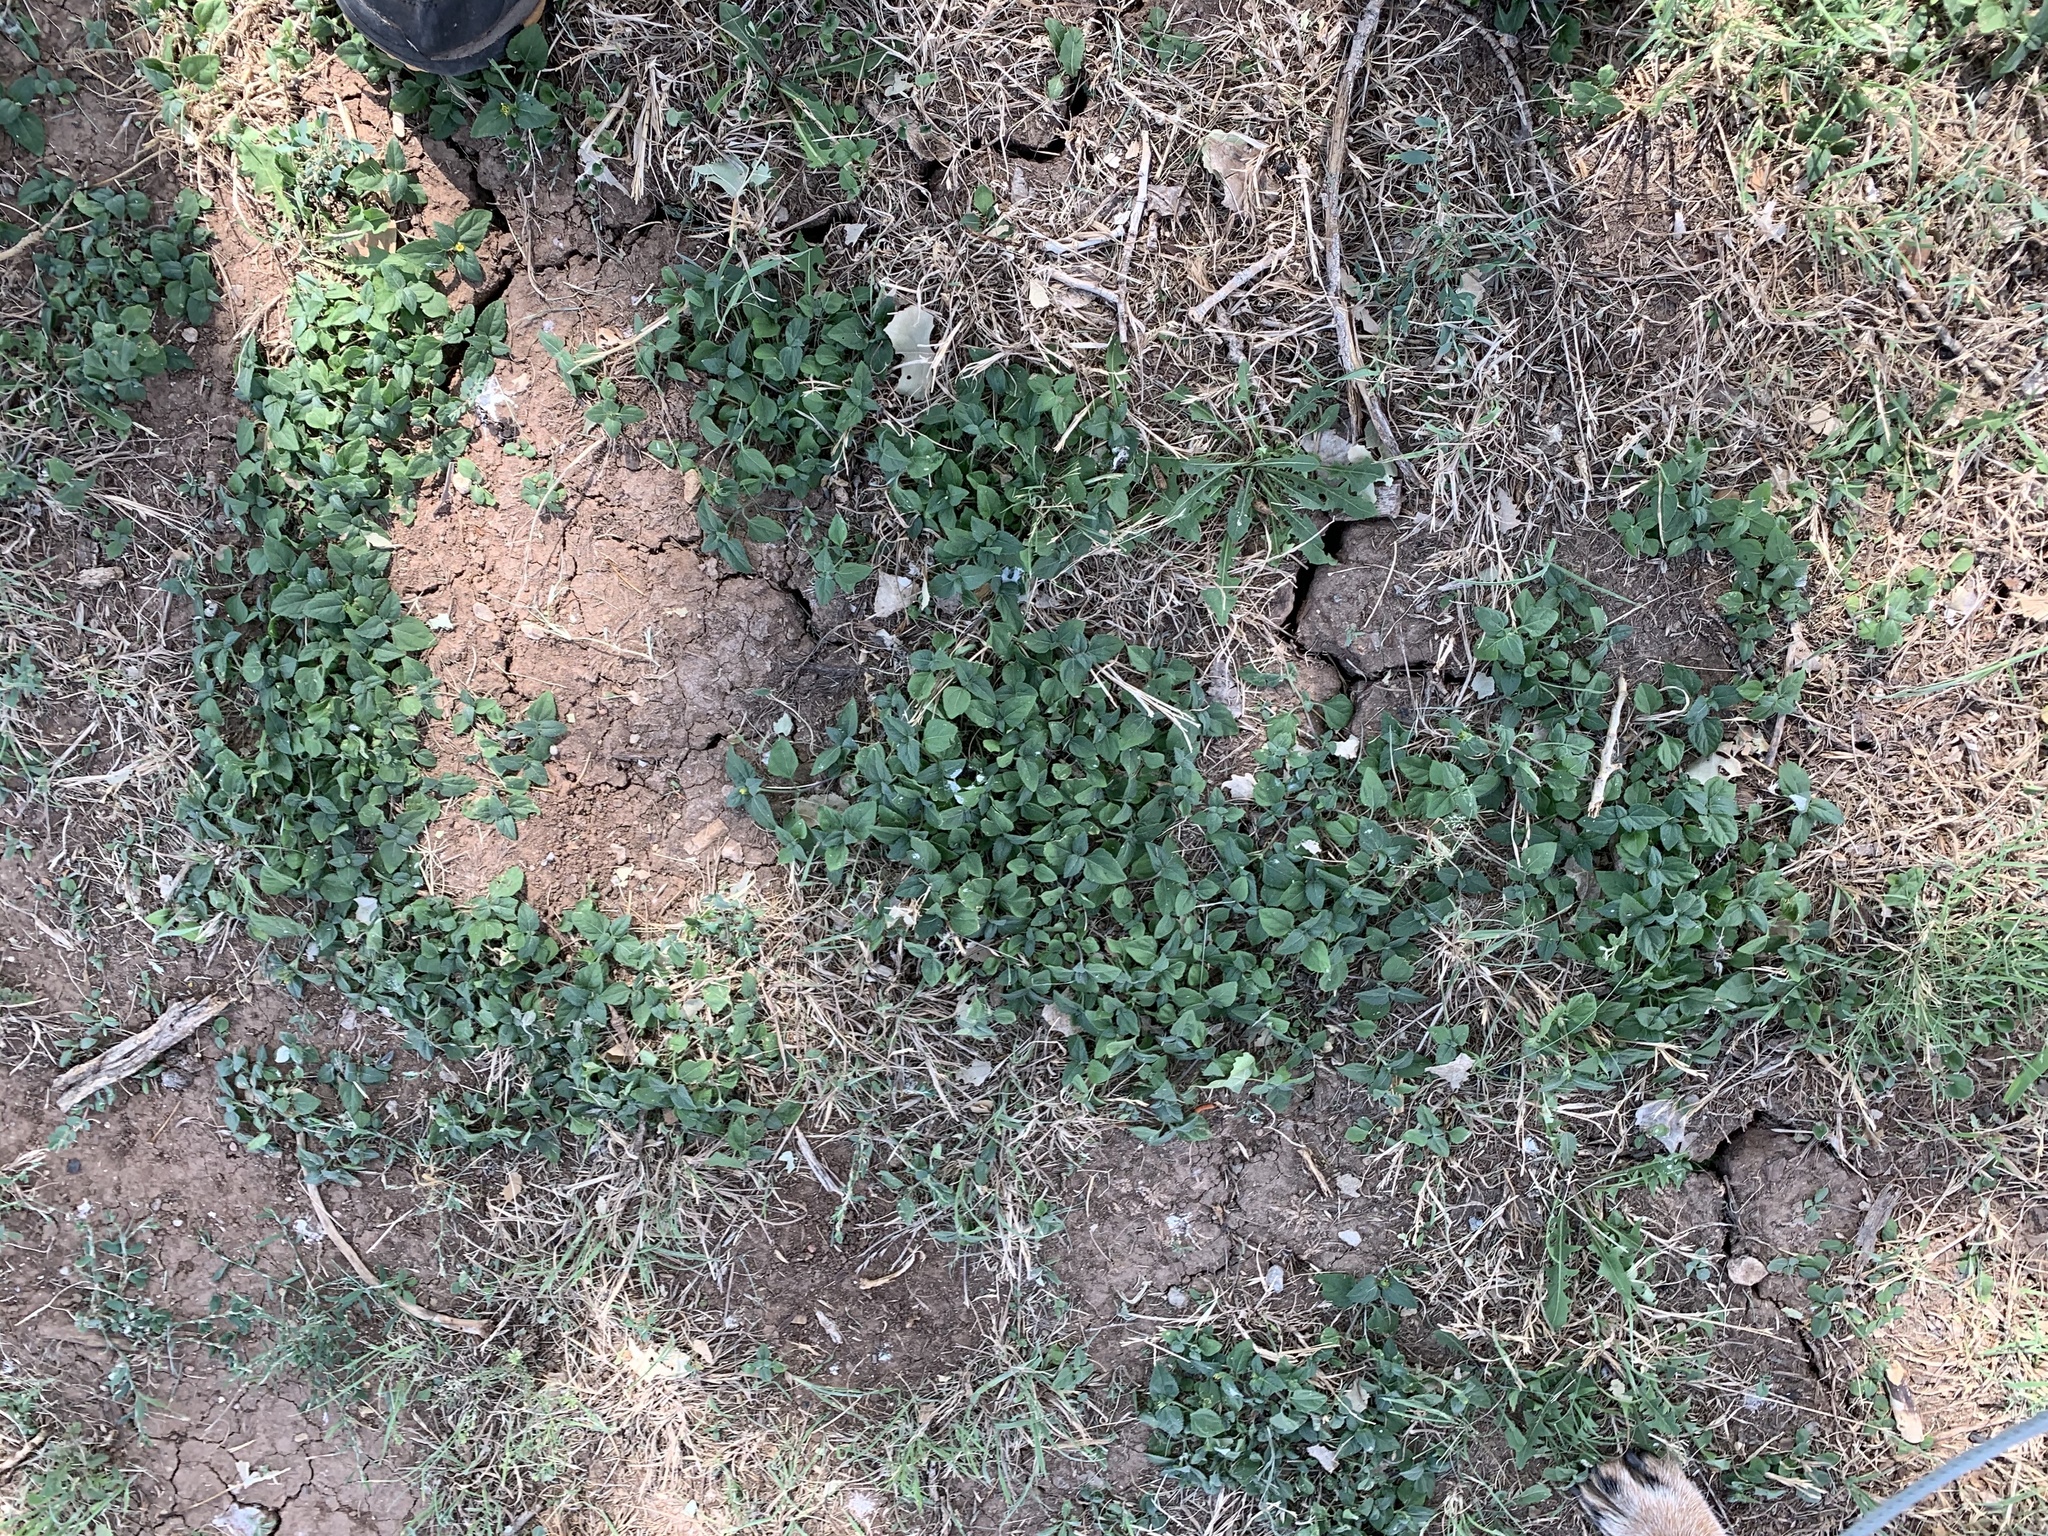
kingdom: Plantae
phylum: Tracheophyta
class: Magnoliopsida
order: Asterales
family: Asteraceae
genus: Calyptocarpus
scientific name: Calyptocarpus vialis
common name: Straggler daisy
